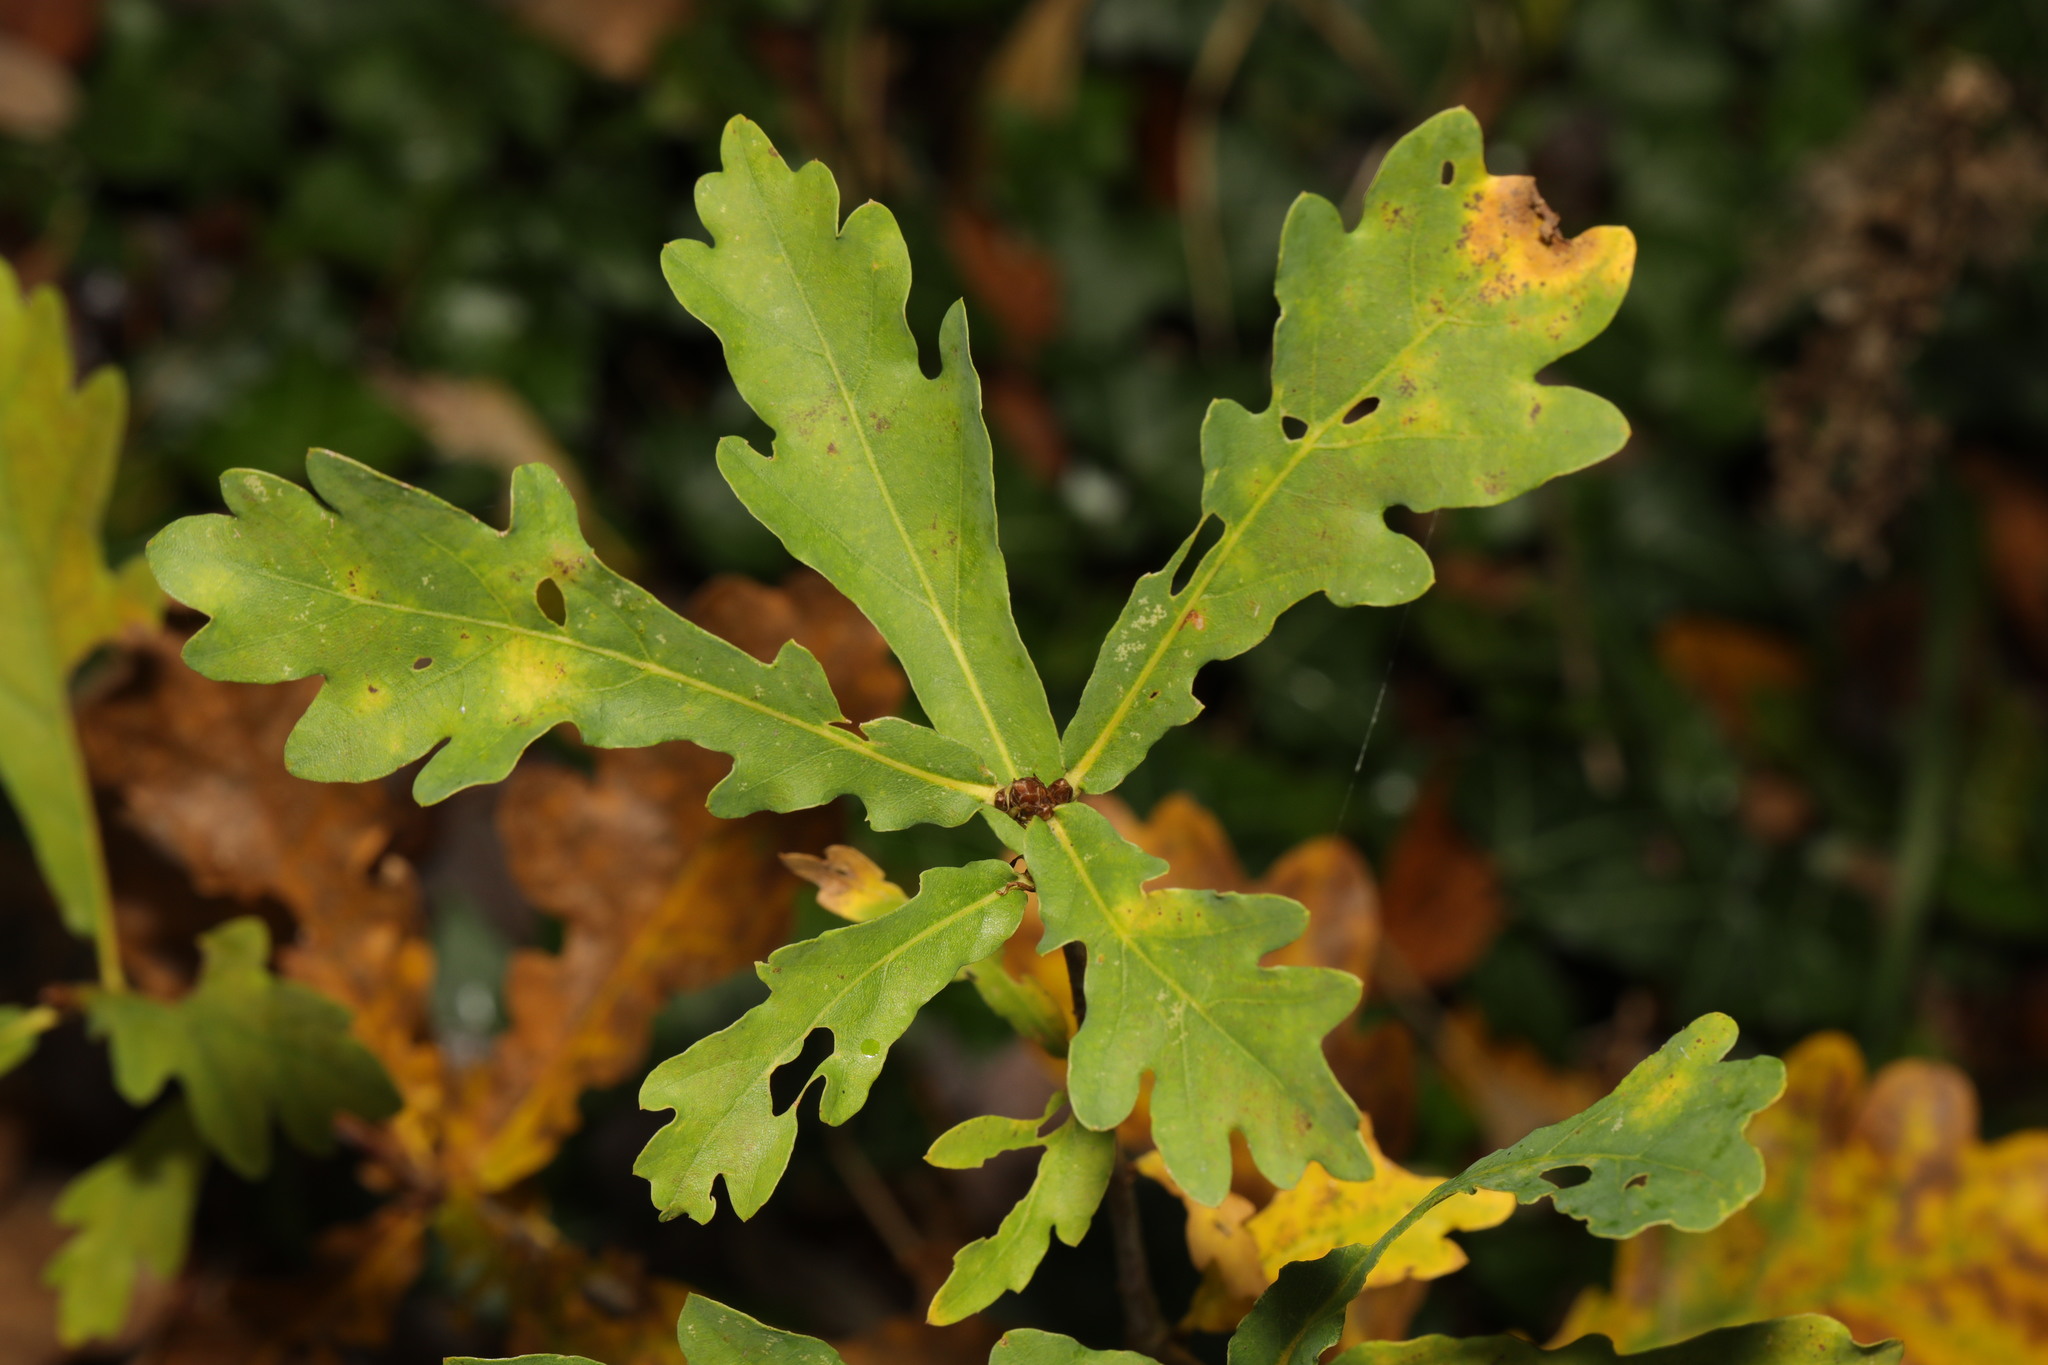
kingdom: Plantae
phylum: Tracheophyta
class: Magnoliopsida
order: Fagales
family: Fagaceae
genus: Quercus
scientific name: Quercus robur
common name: Pedunculate oak
